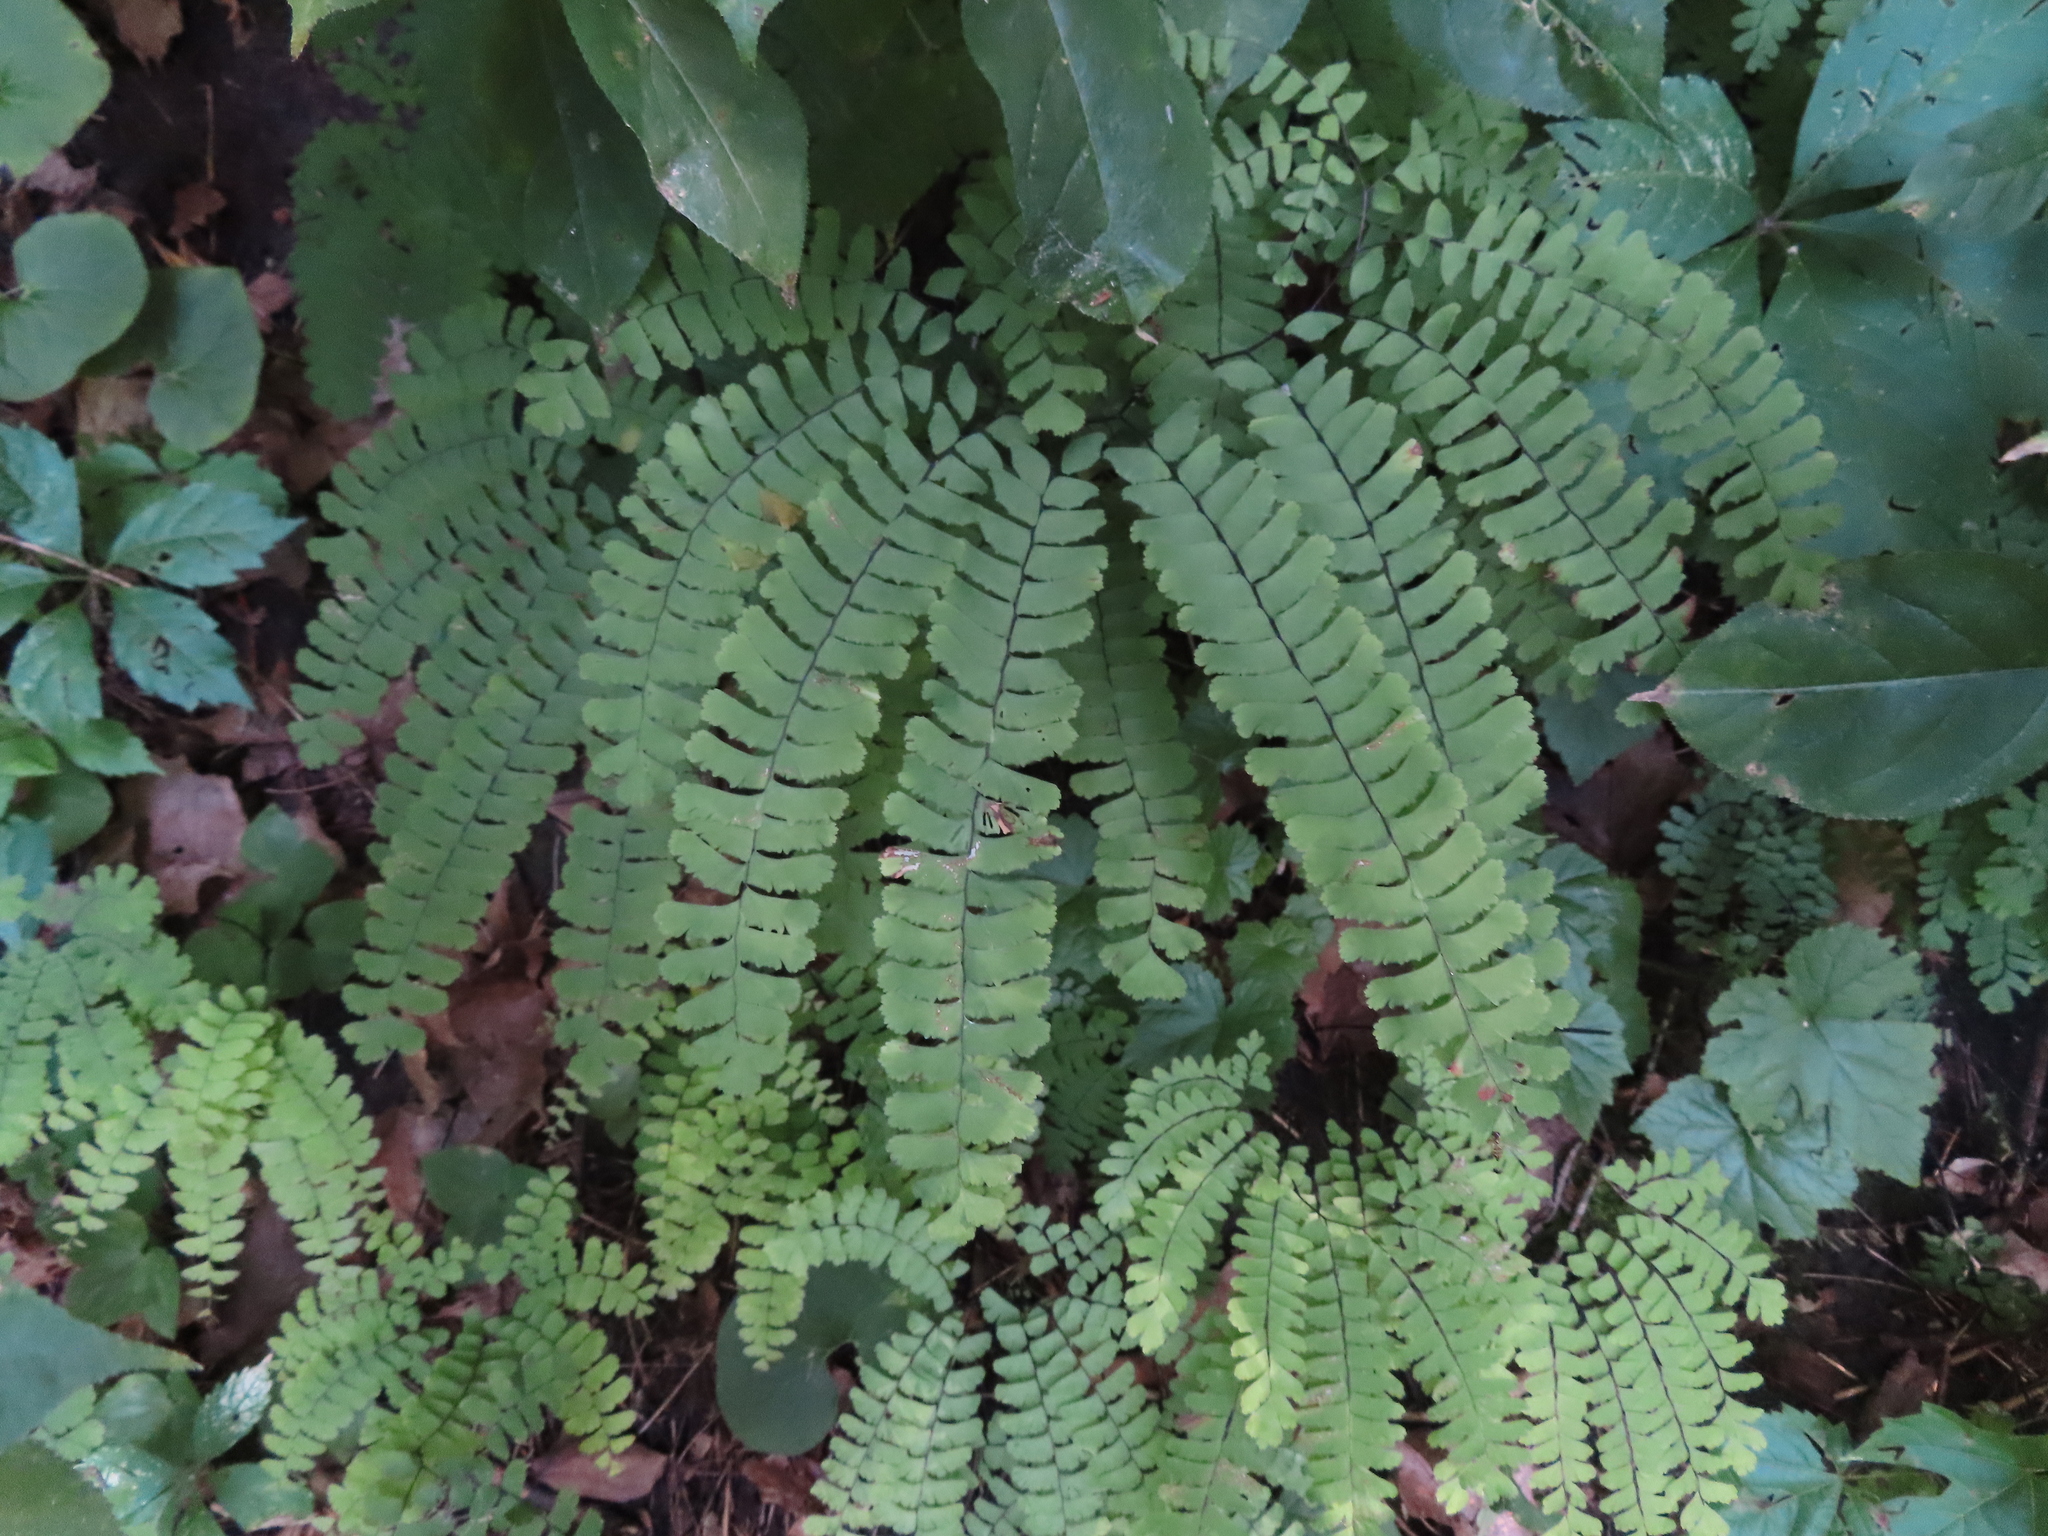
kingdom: Plantae
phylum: Tracheophyta
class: Polypodiopsida
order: Polypodiales
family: Pteridaceae
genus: Adiantum
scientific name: Adiantum pedatum
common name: Five-finger fern
